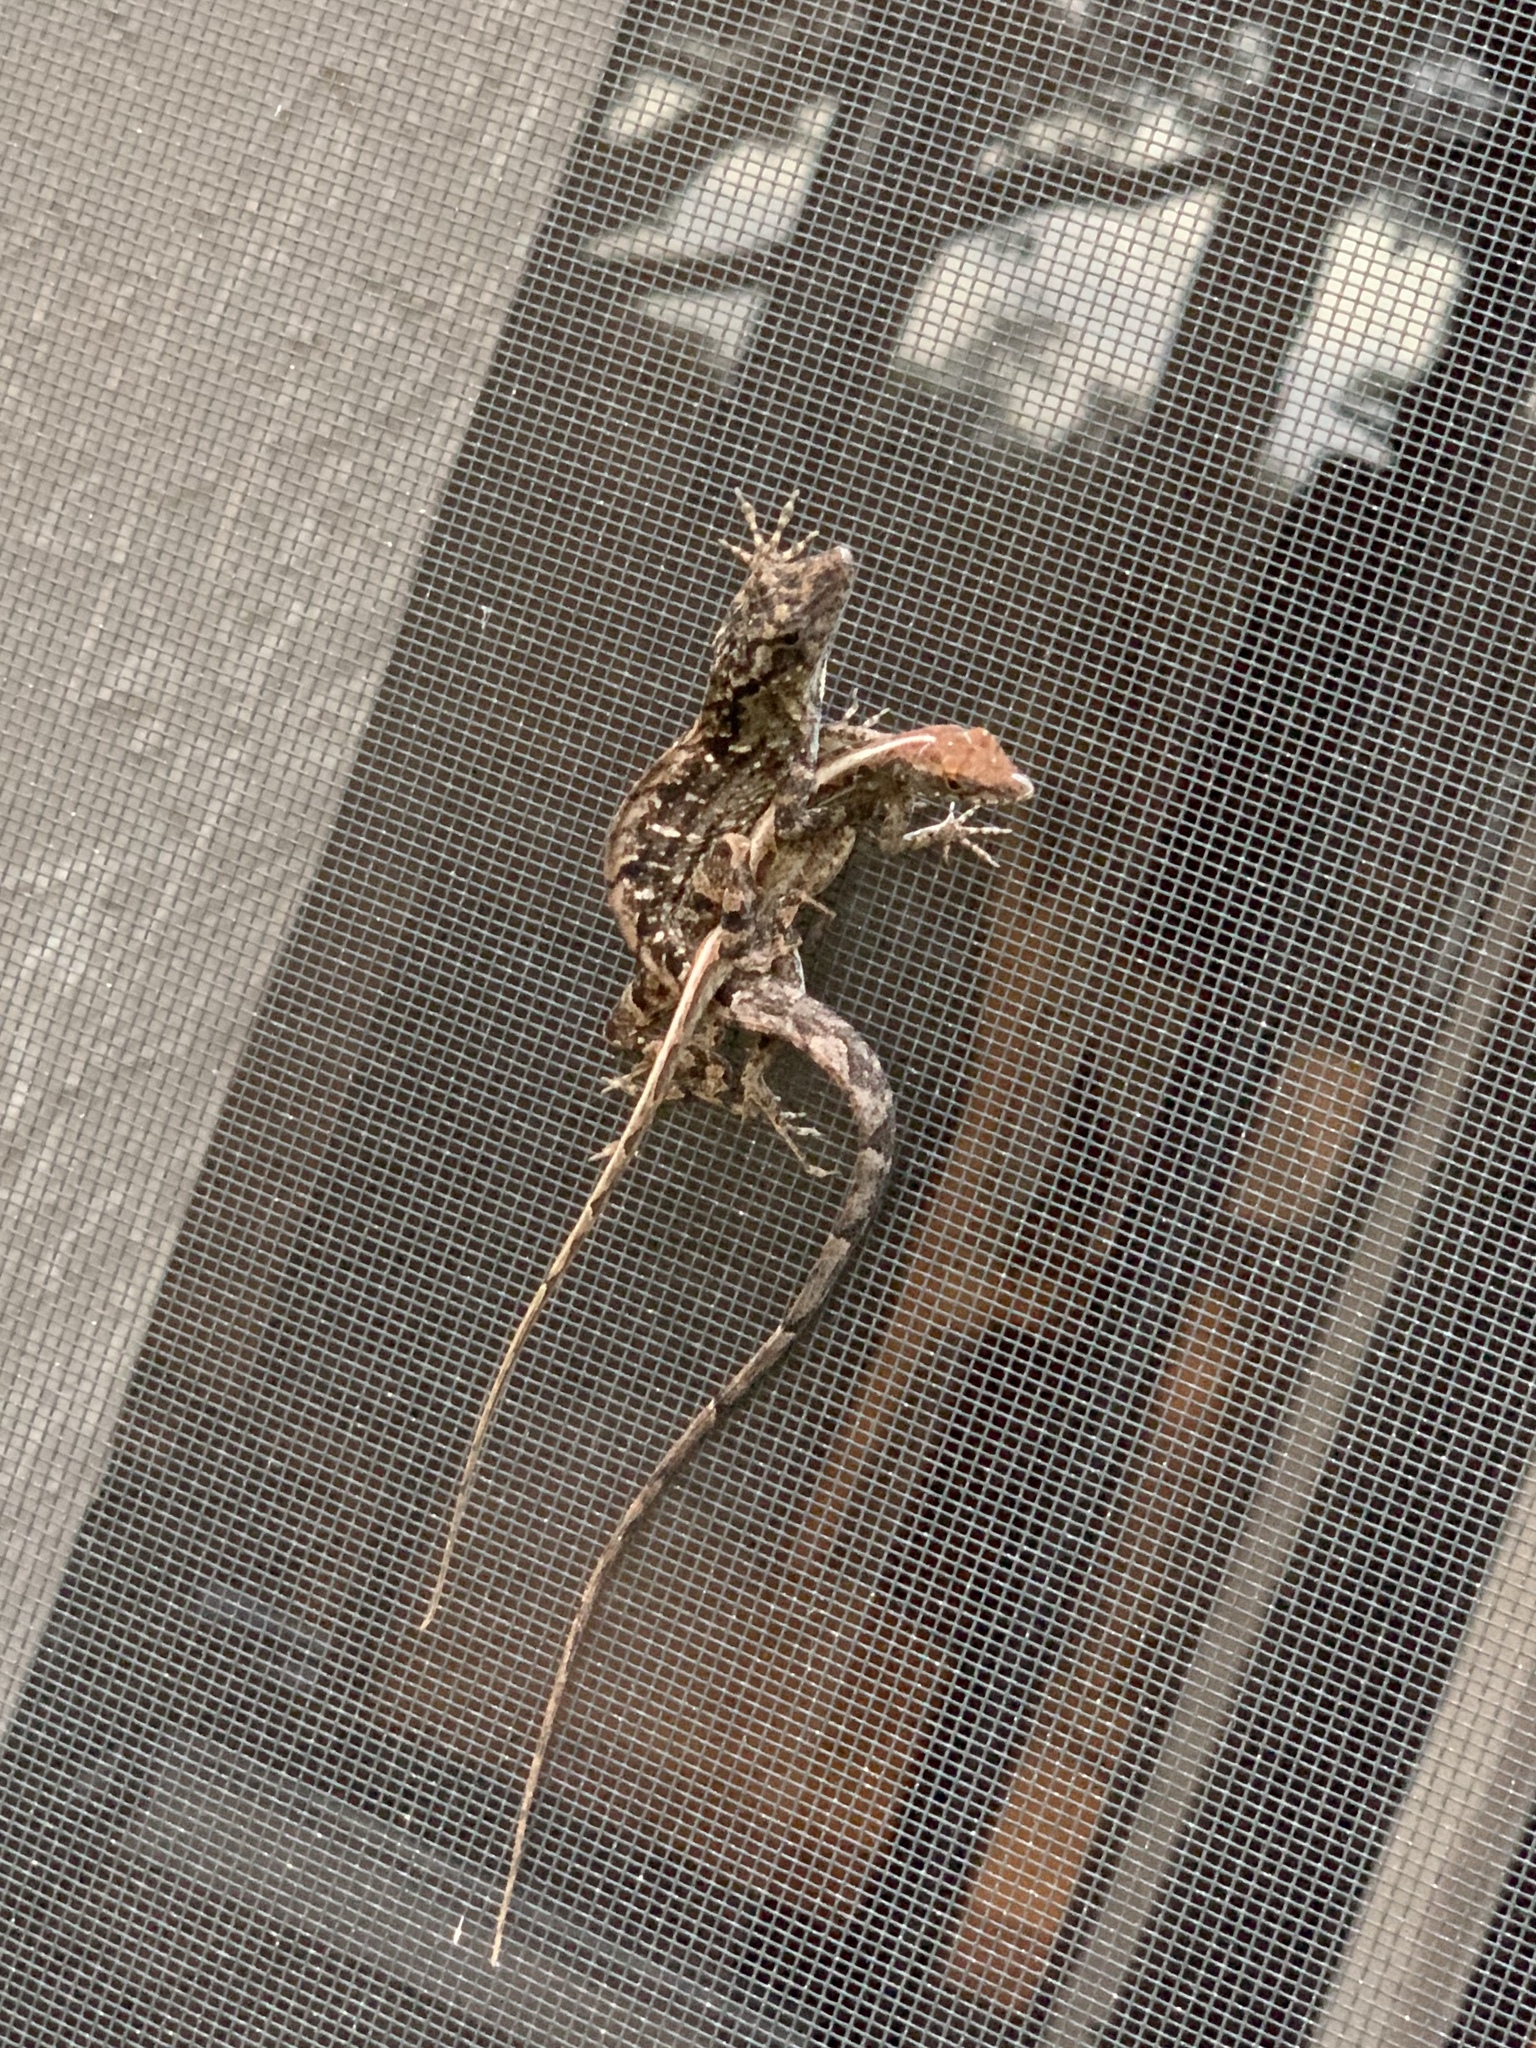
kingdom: Animalia
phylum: Chordata
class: Squamata
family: Dactyloidae
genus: Anolis
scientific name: Anolis sagrei
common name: Brown anole
